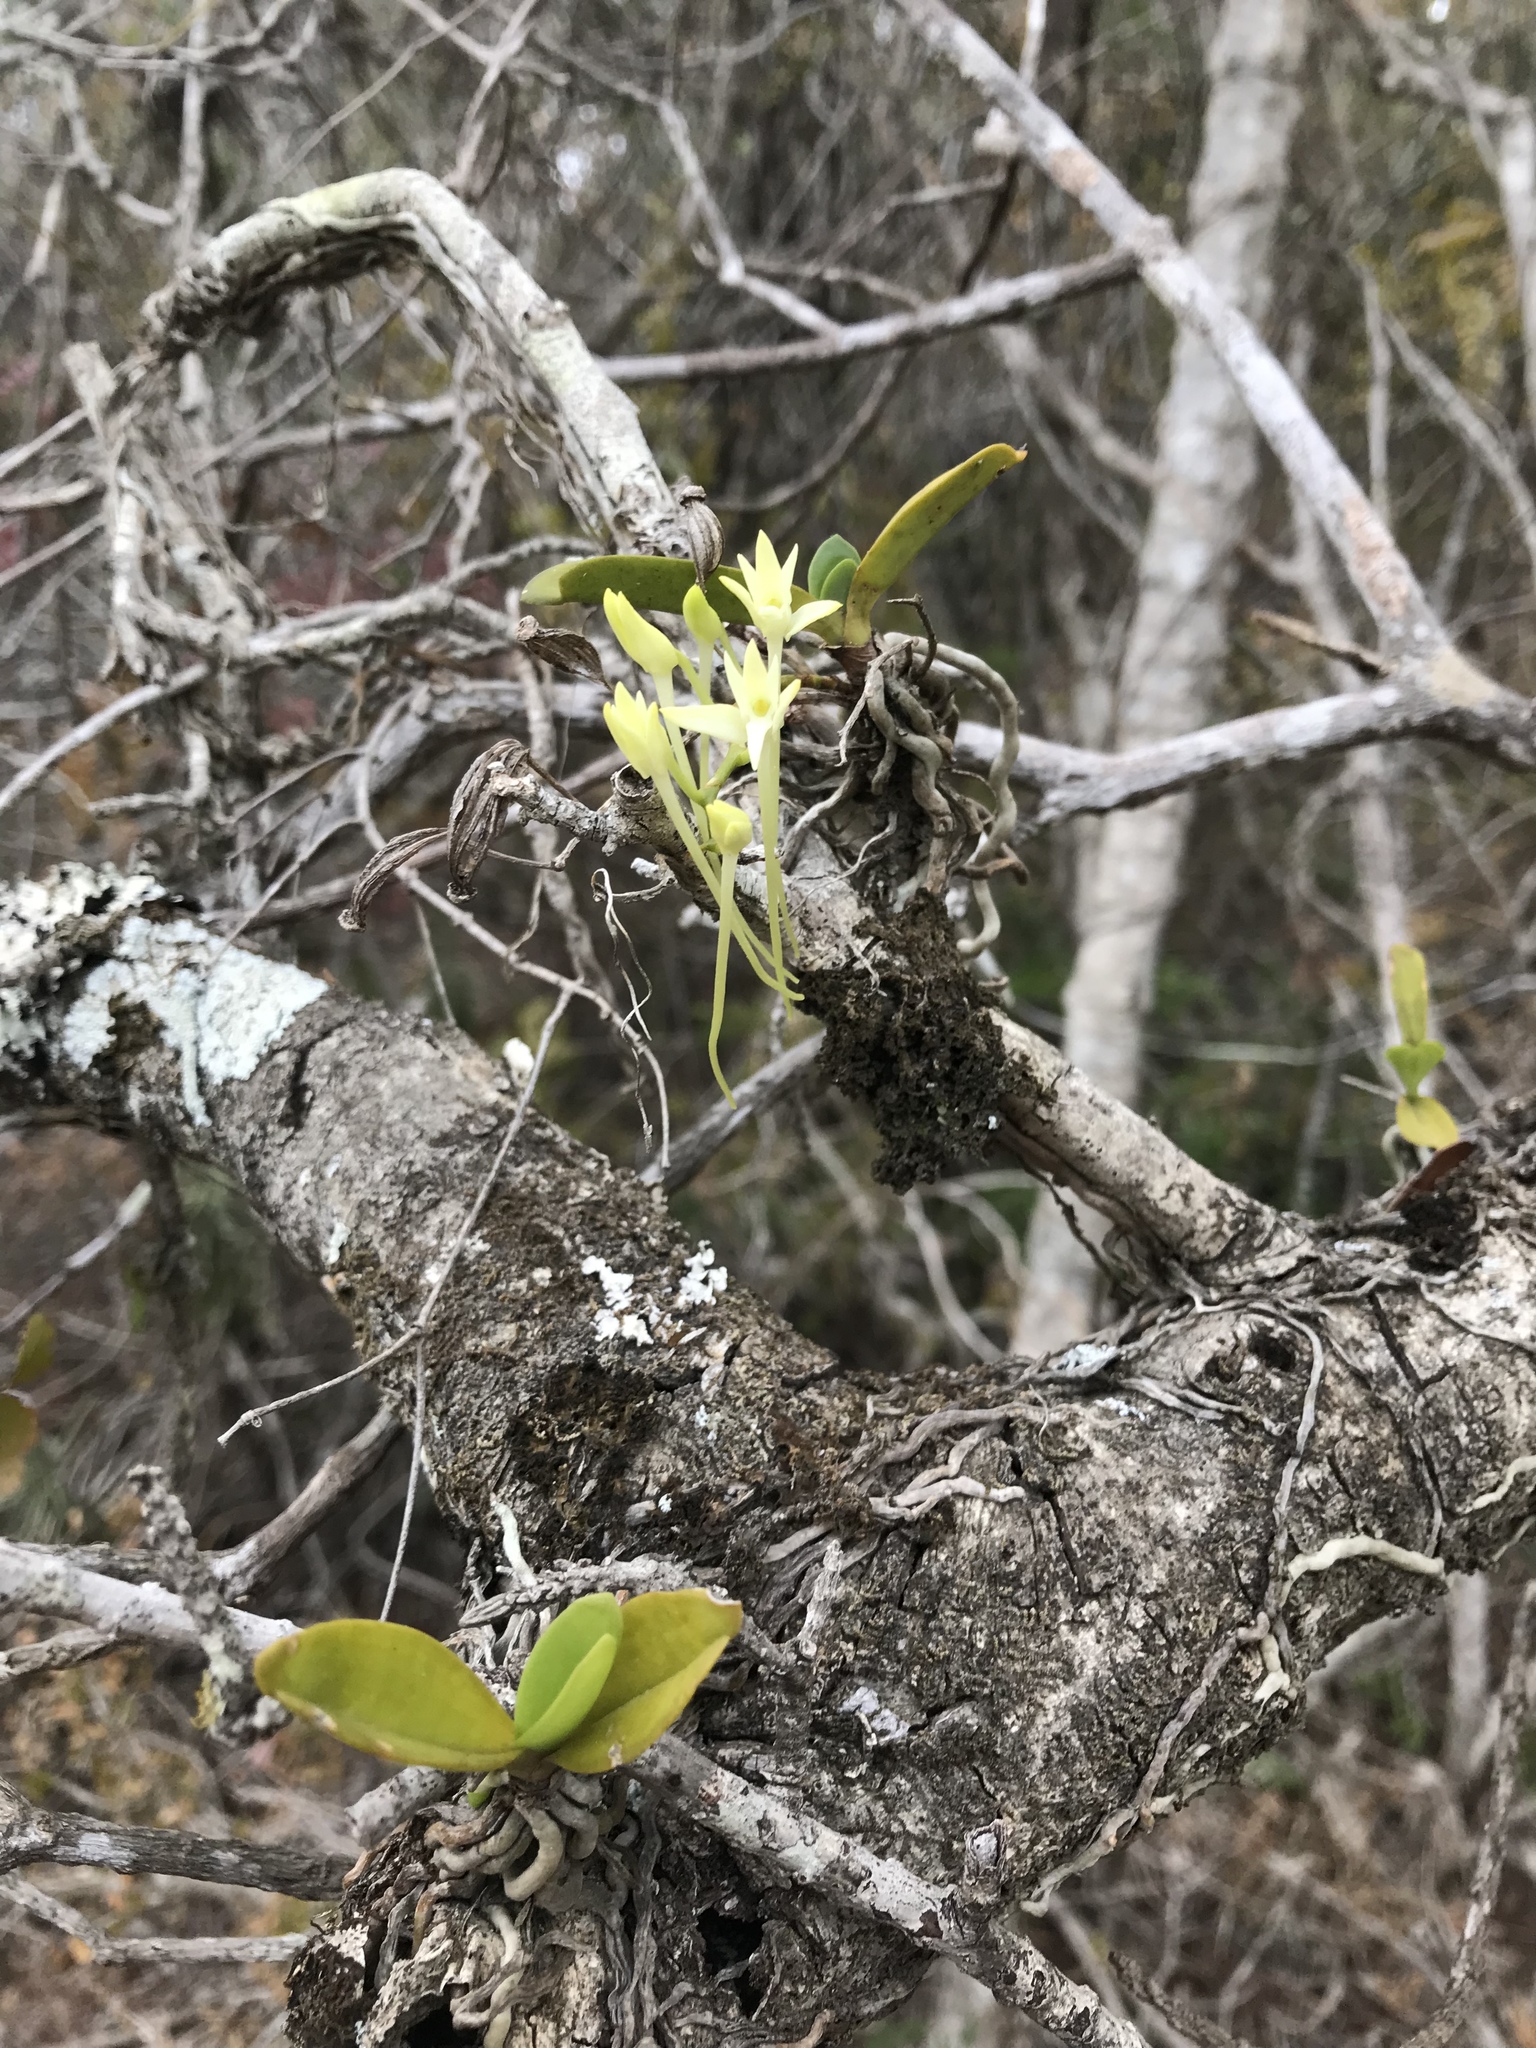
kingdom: Plantae
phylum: Tracheophyta
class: Liliopsida
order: Asparagales
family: Orchidaceae
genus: Mystacidium
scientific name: Mystacidium capense
